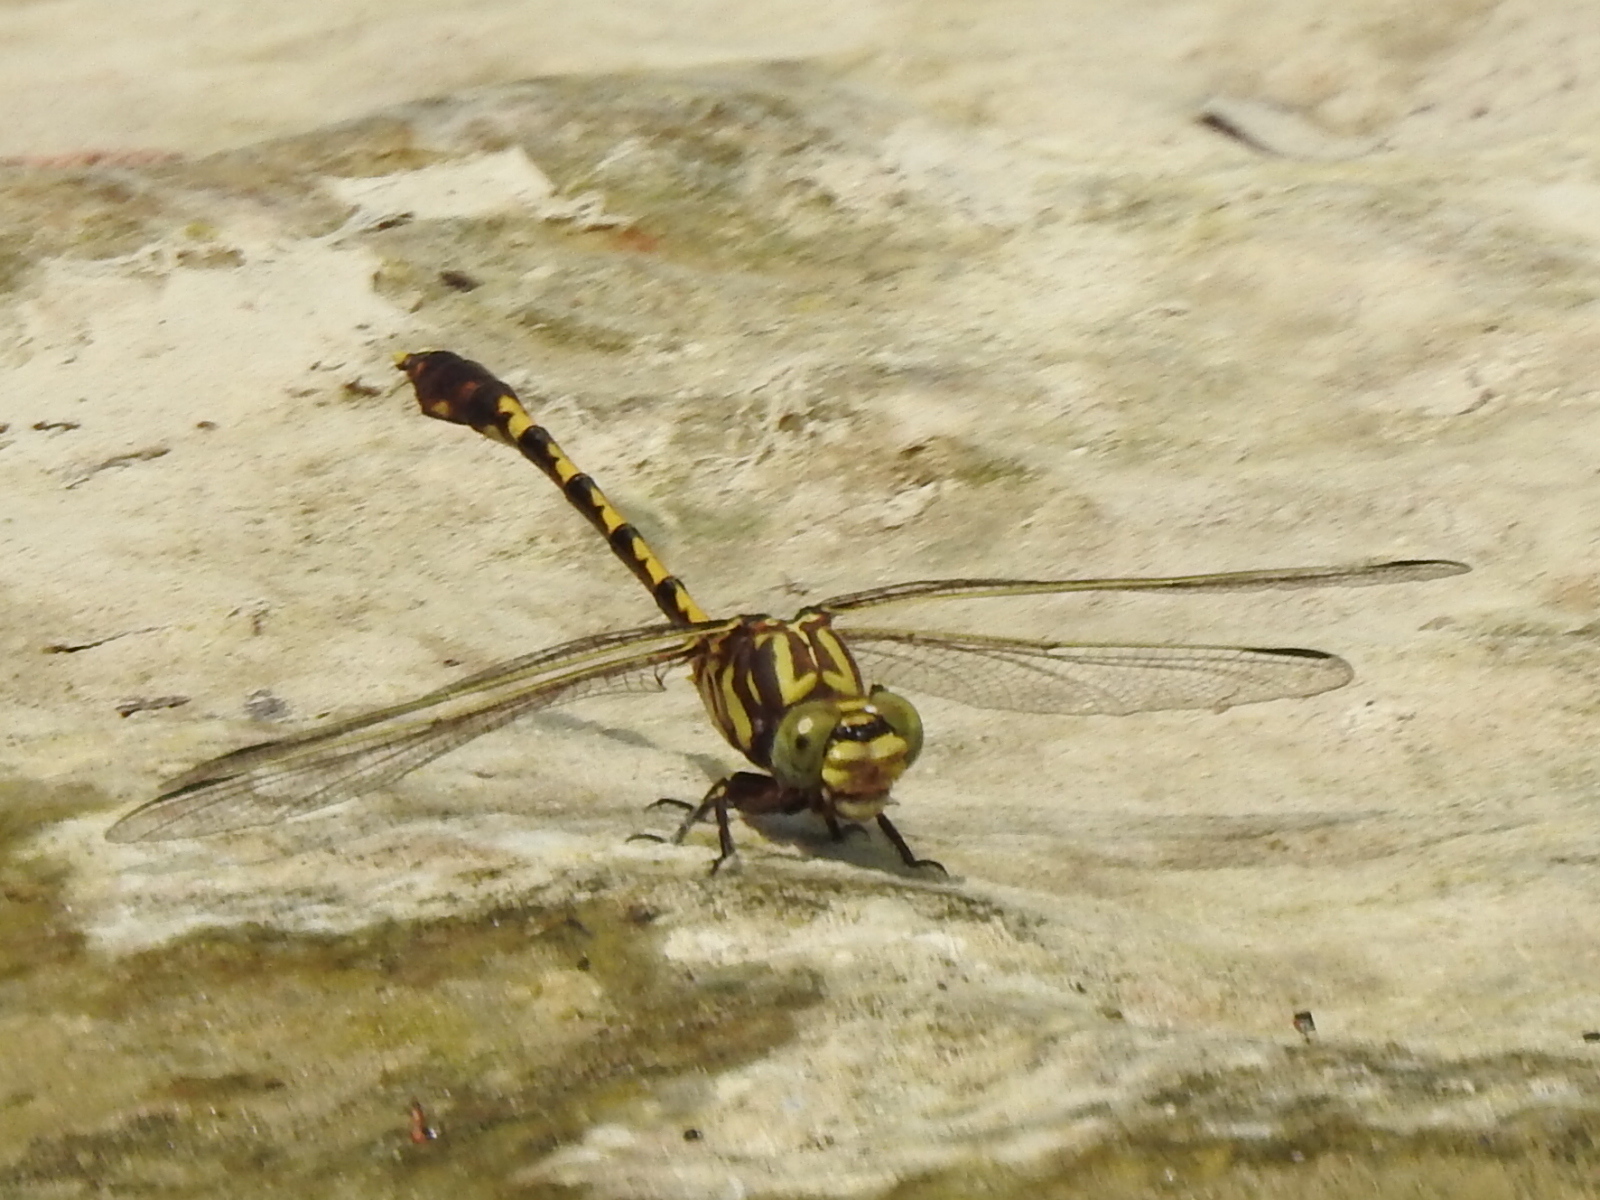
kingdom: Animalia
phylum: Arthropoda
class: Insecta
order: Odonata
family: Gomphidae
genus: Progomphus
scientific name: Progomphus obscurus
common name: Common sanddragon
